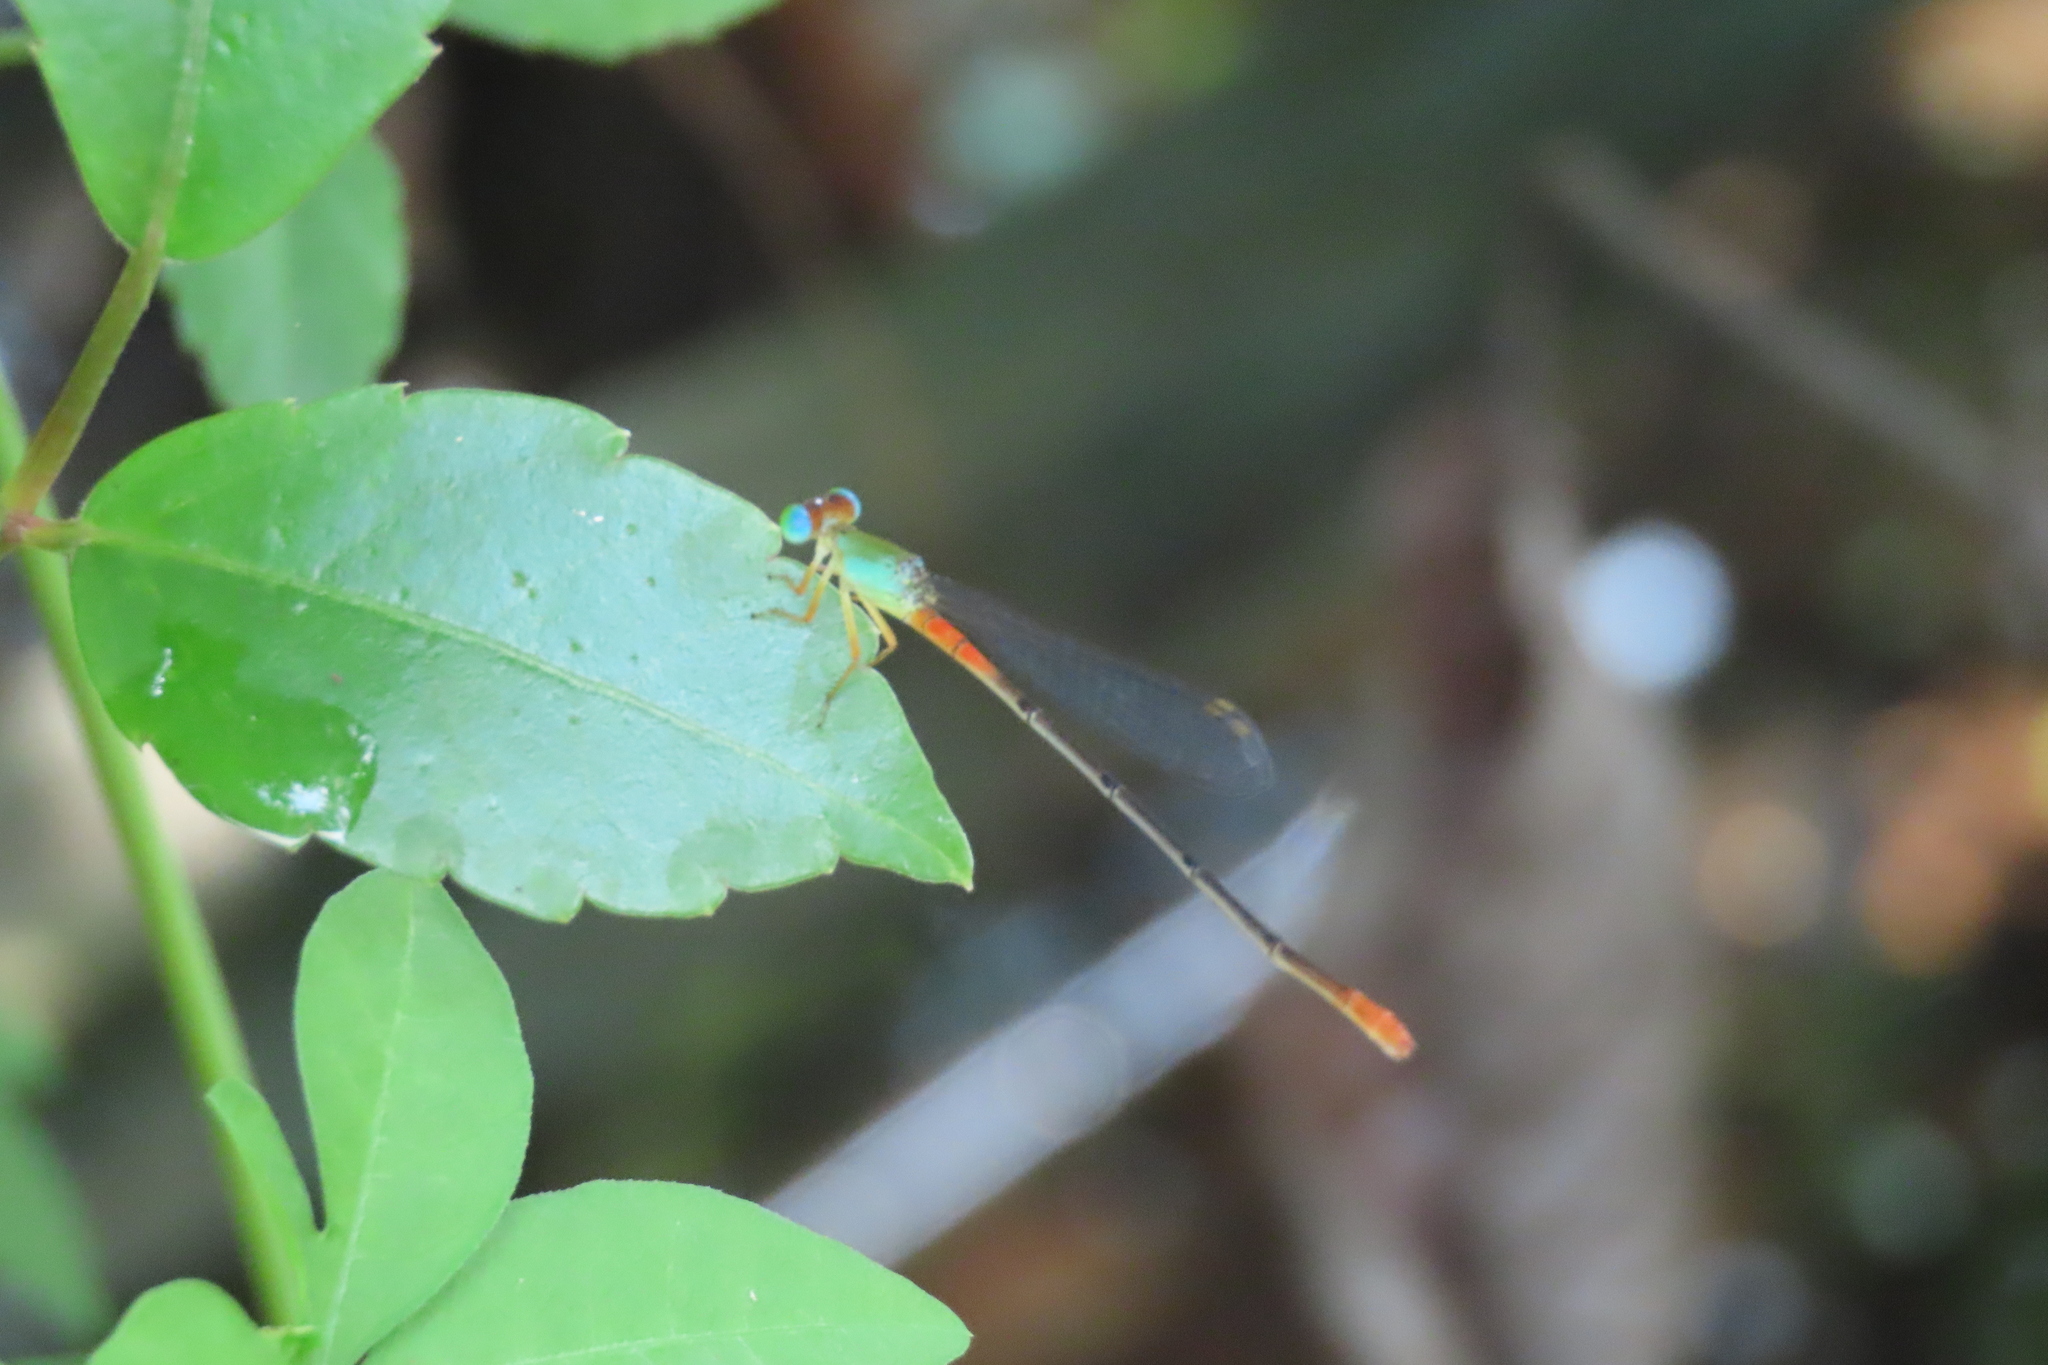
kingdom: Animalia
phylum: Arthropoda
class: Insecta
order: Odonata
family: Coenagrionidae
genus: Ceriagrion
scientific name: Ceriagrion cerinorubellum
